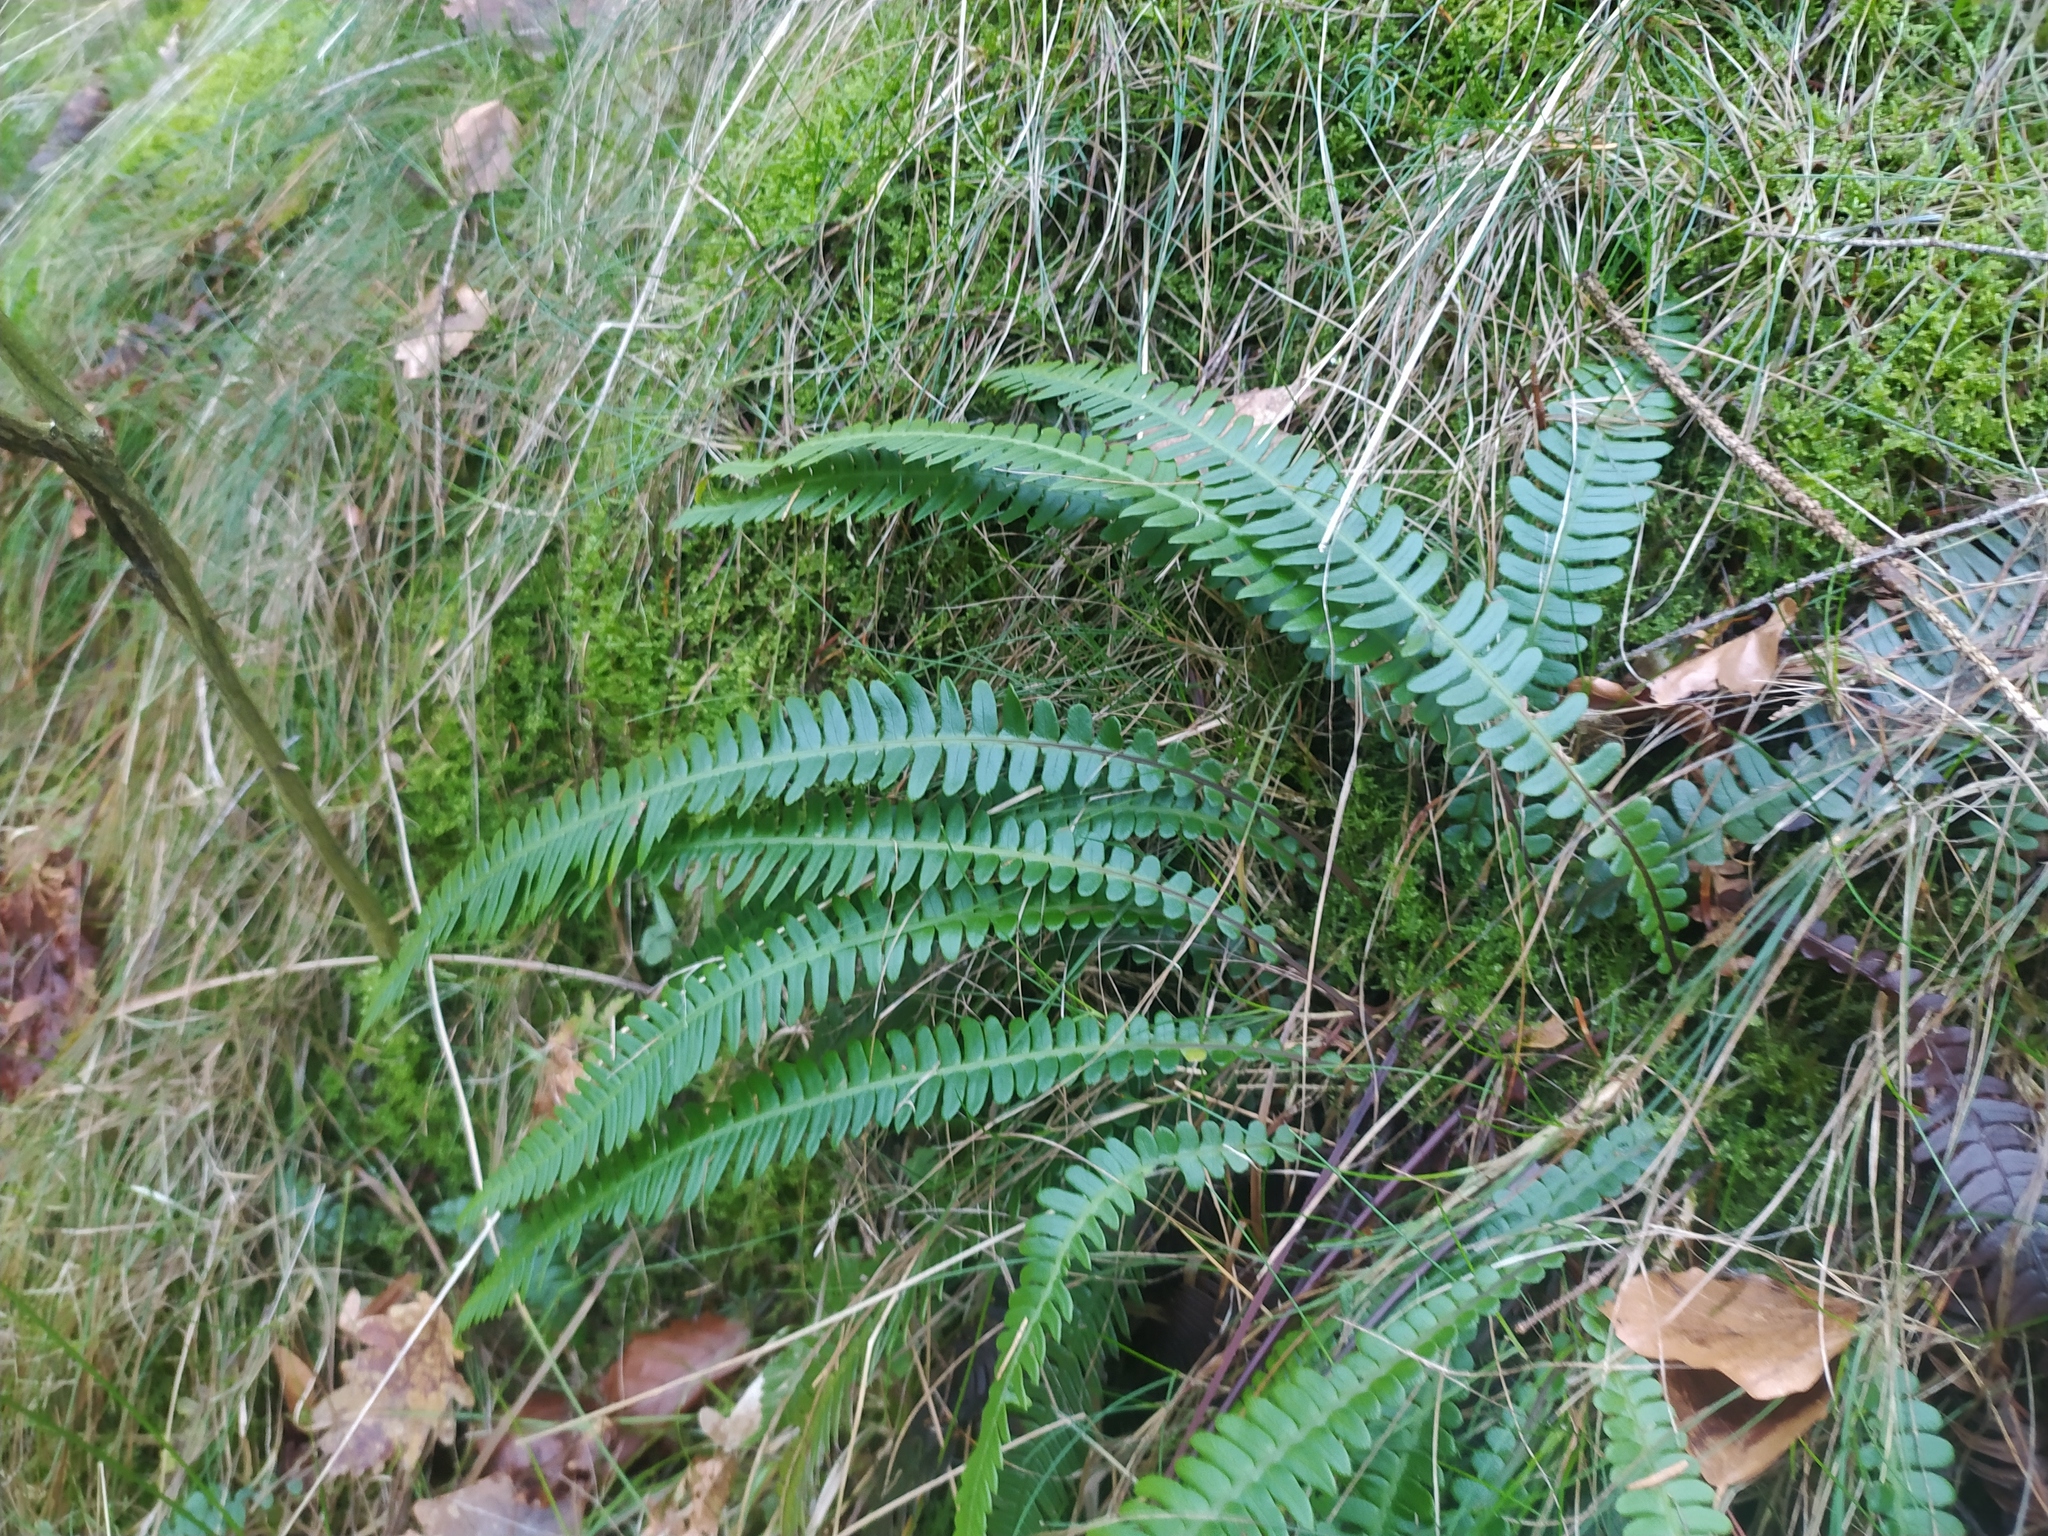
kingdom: Plantae
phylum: Tracheophyta
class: Polypodiopsida
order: Polypodiales
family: Blechnaceae
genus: Struthiopteris
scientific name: Struthiopteris spicant
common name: Deer fern
